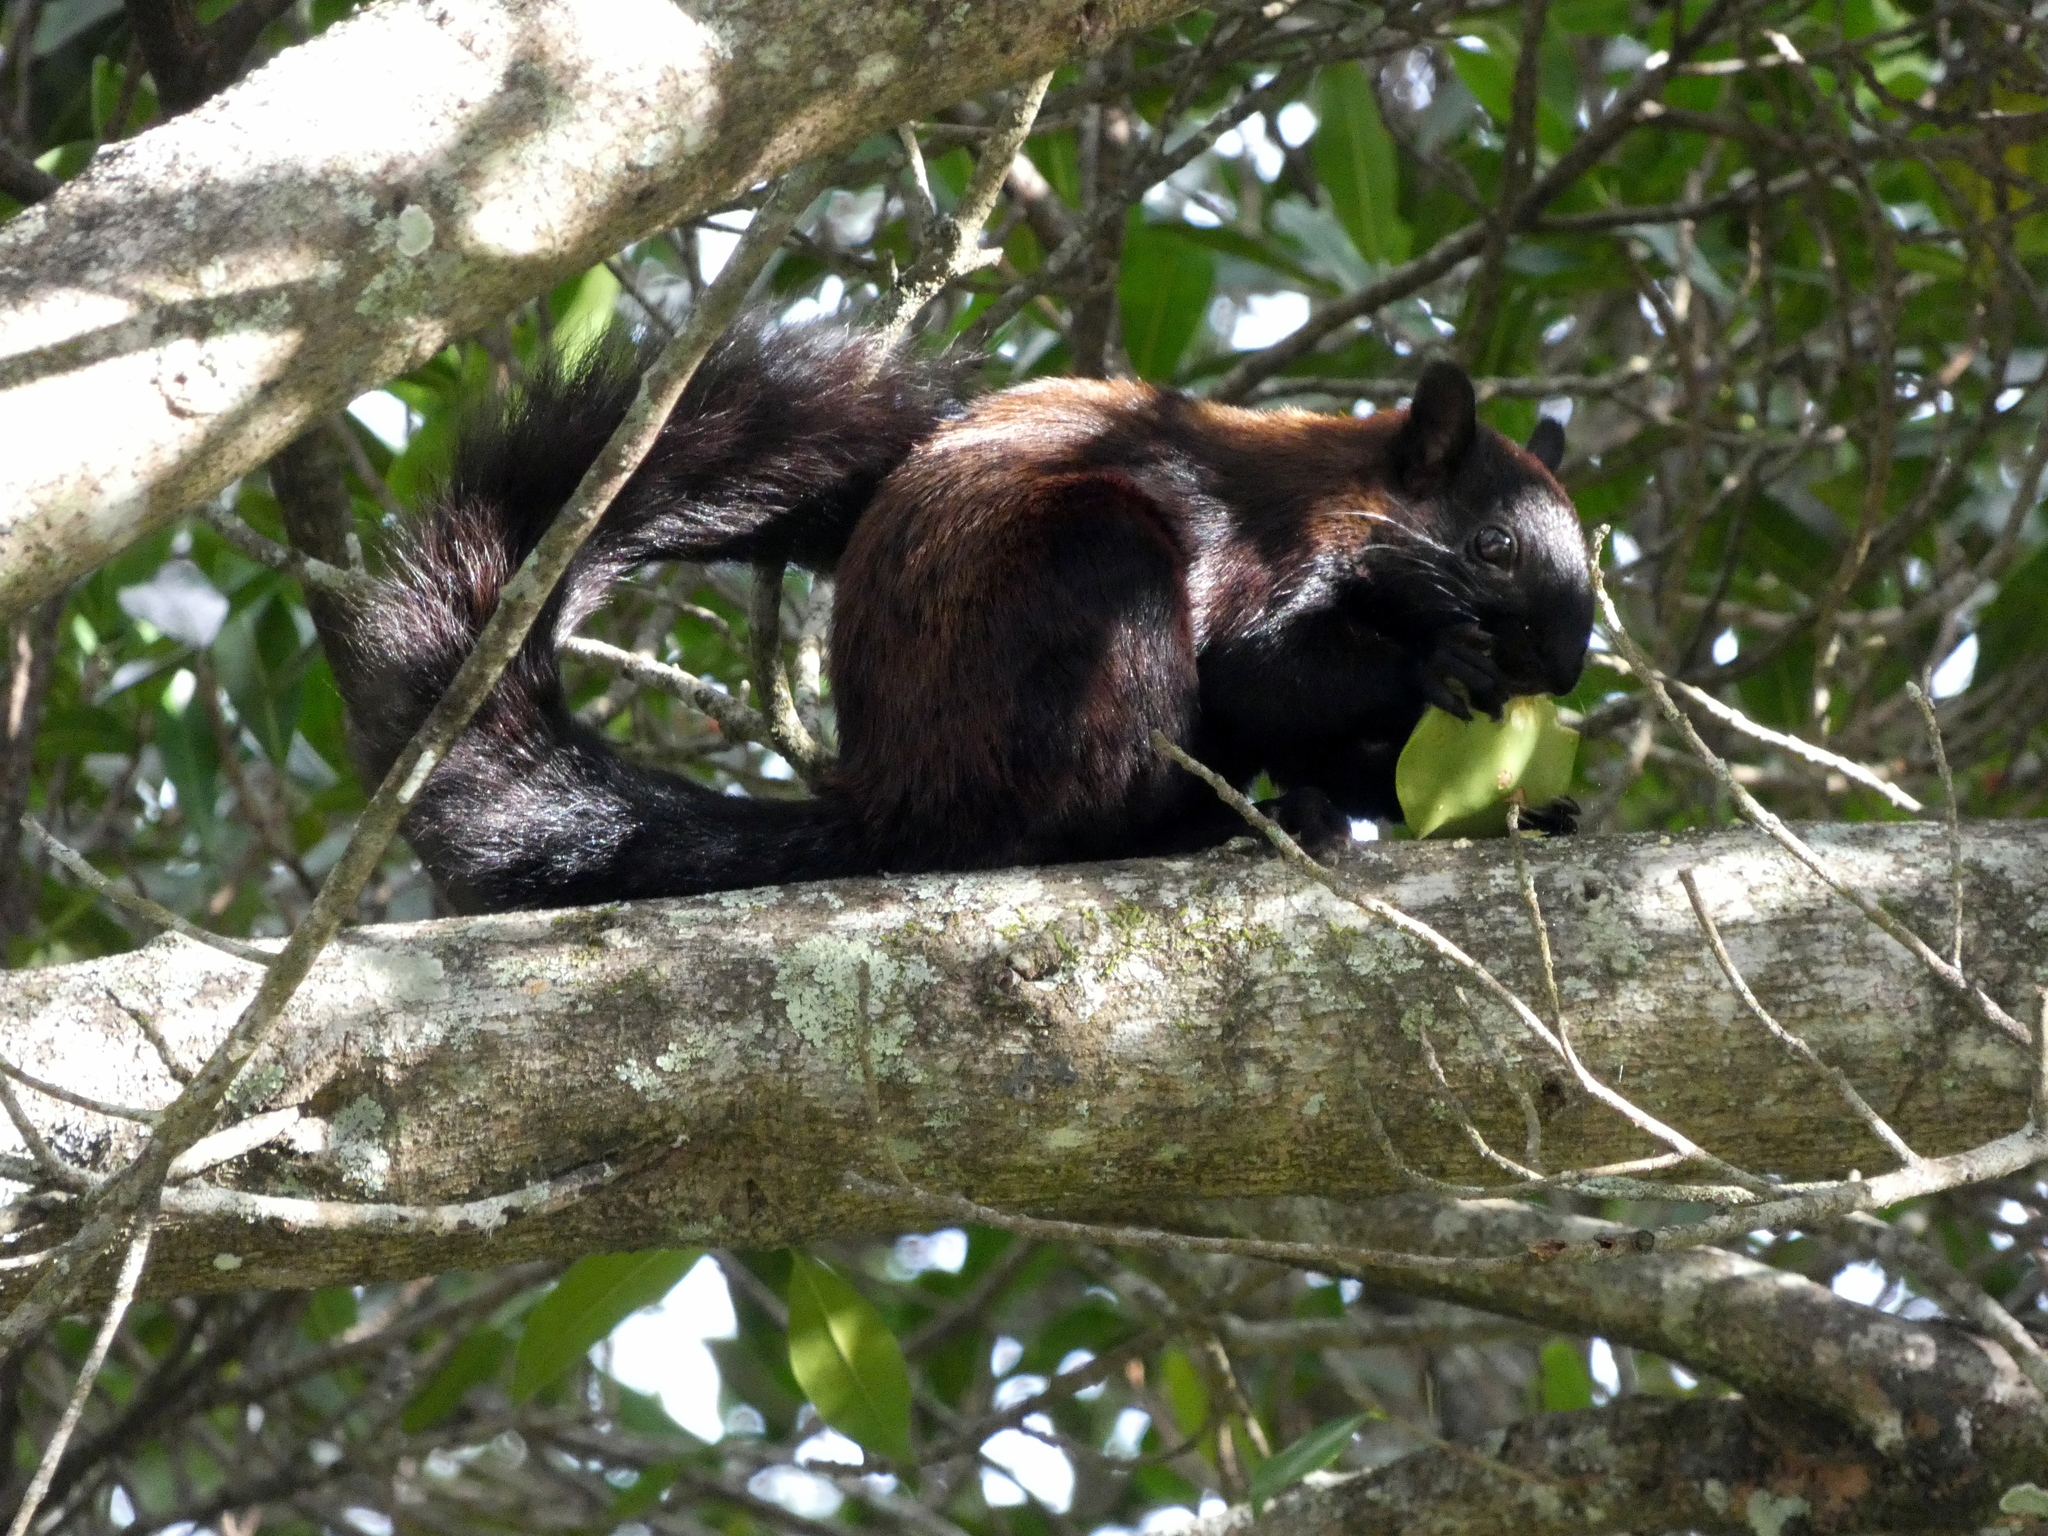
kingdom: Animalia
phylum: Chordata
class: Mammalia
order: Rodentia
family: Sciuridae
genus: Sciurus
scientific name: Sciurus variegatoides
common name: Variegated squirrel
